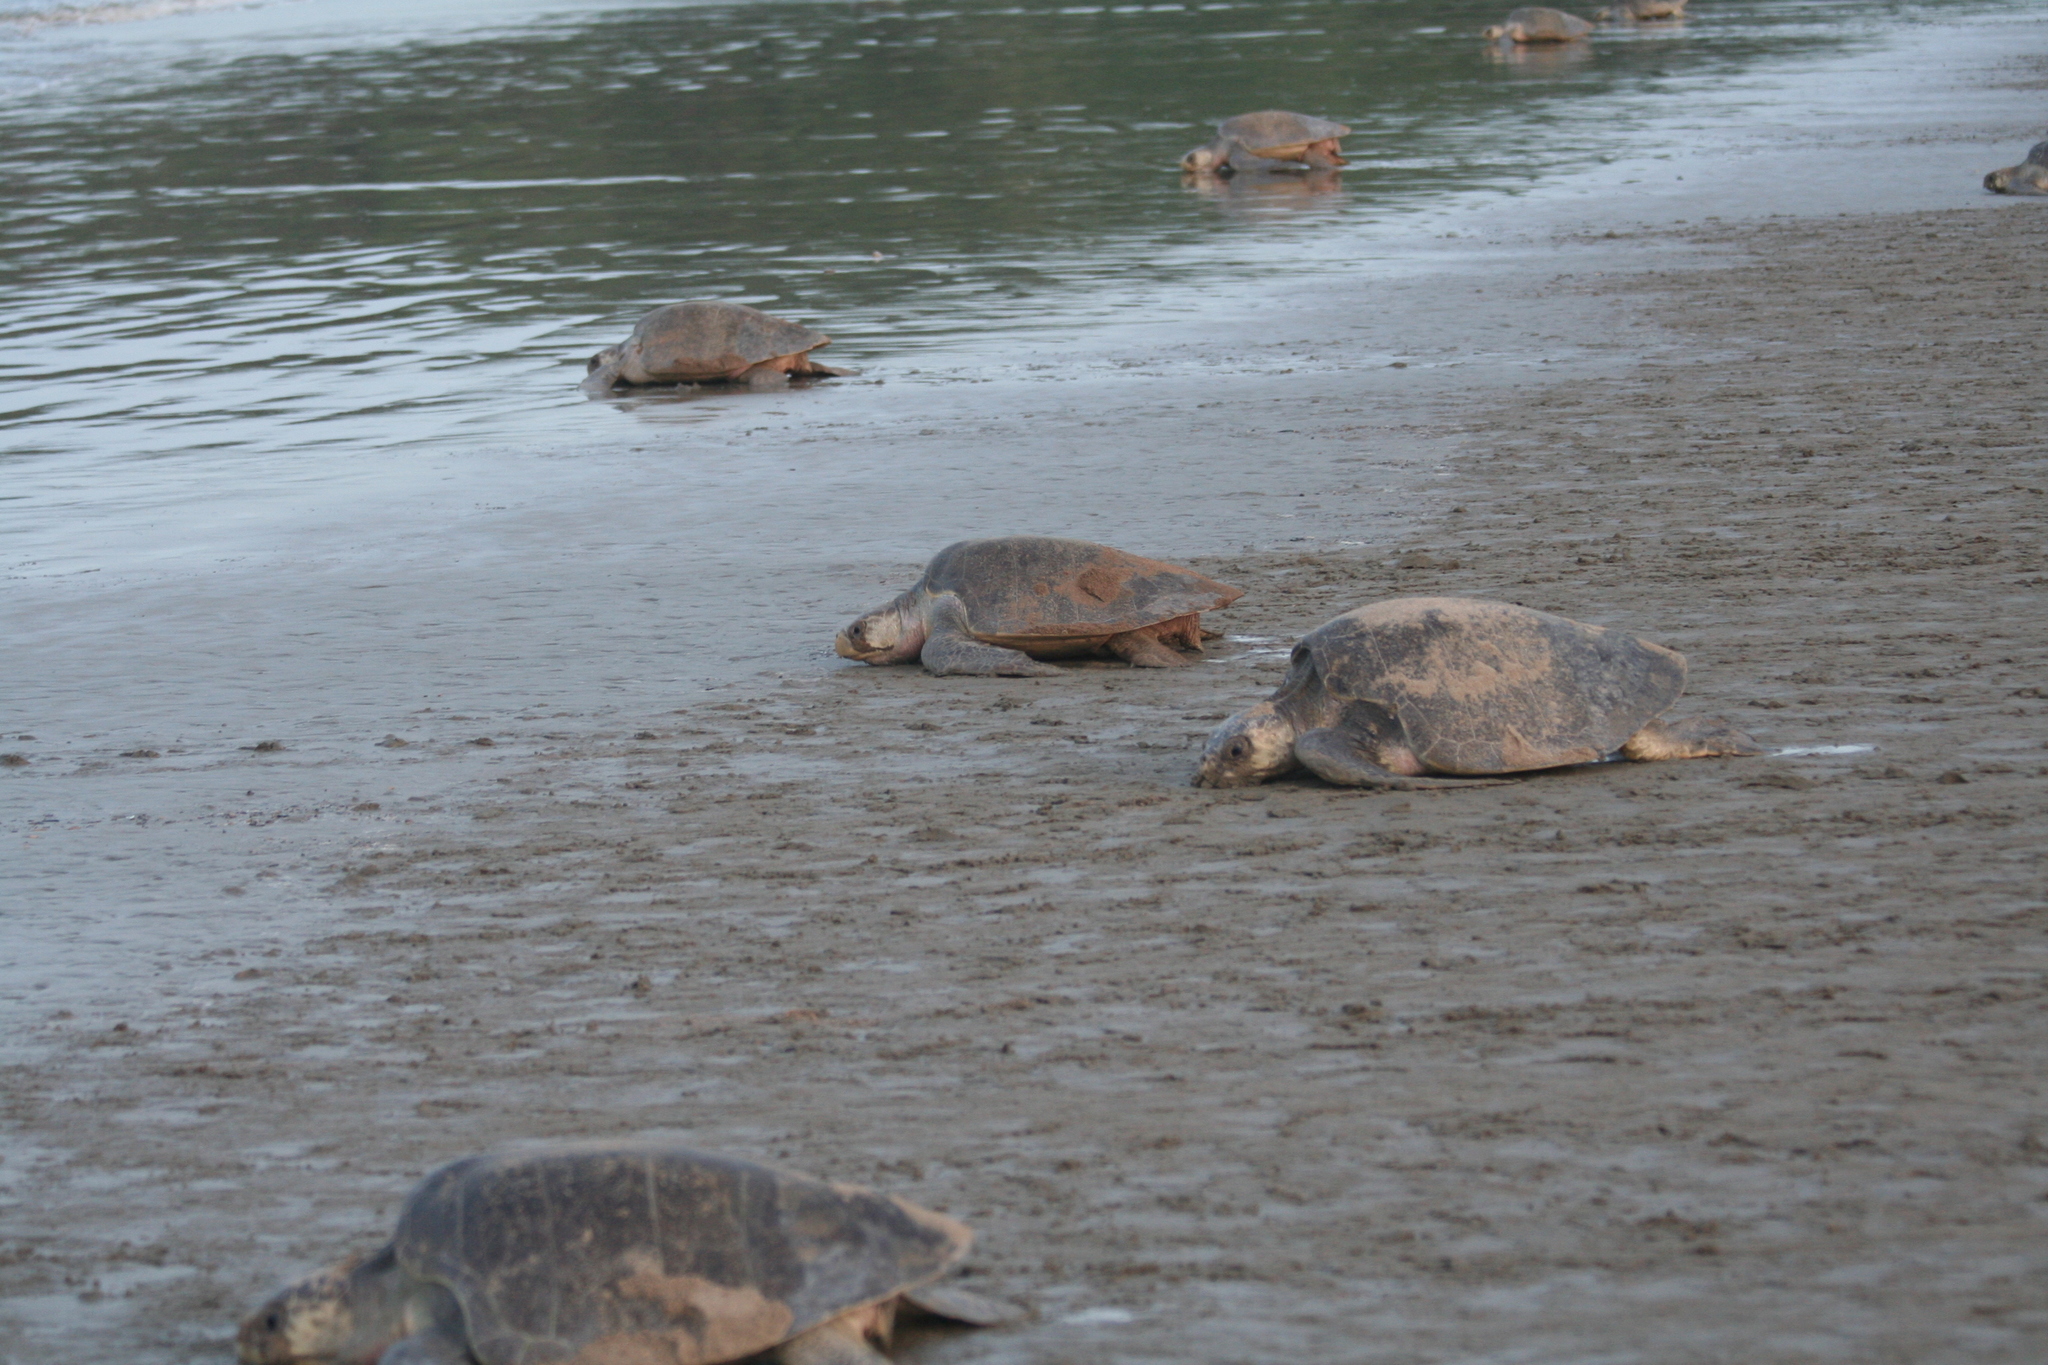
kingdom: Animalia
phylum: Chordata
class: Testudines
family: Cheloniidae
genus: Lepidochelys
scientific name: Lepidochelys olivacea
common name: Olive ridley
